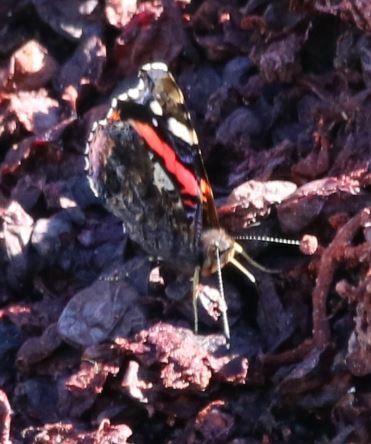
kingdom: Animalia
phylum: Arthropoda
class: Insecta
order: Lepidoptera
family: Nymphalidae
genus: Vanessa
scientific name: Vanessa atalanta
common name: Red admiral
